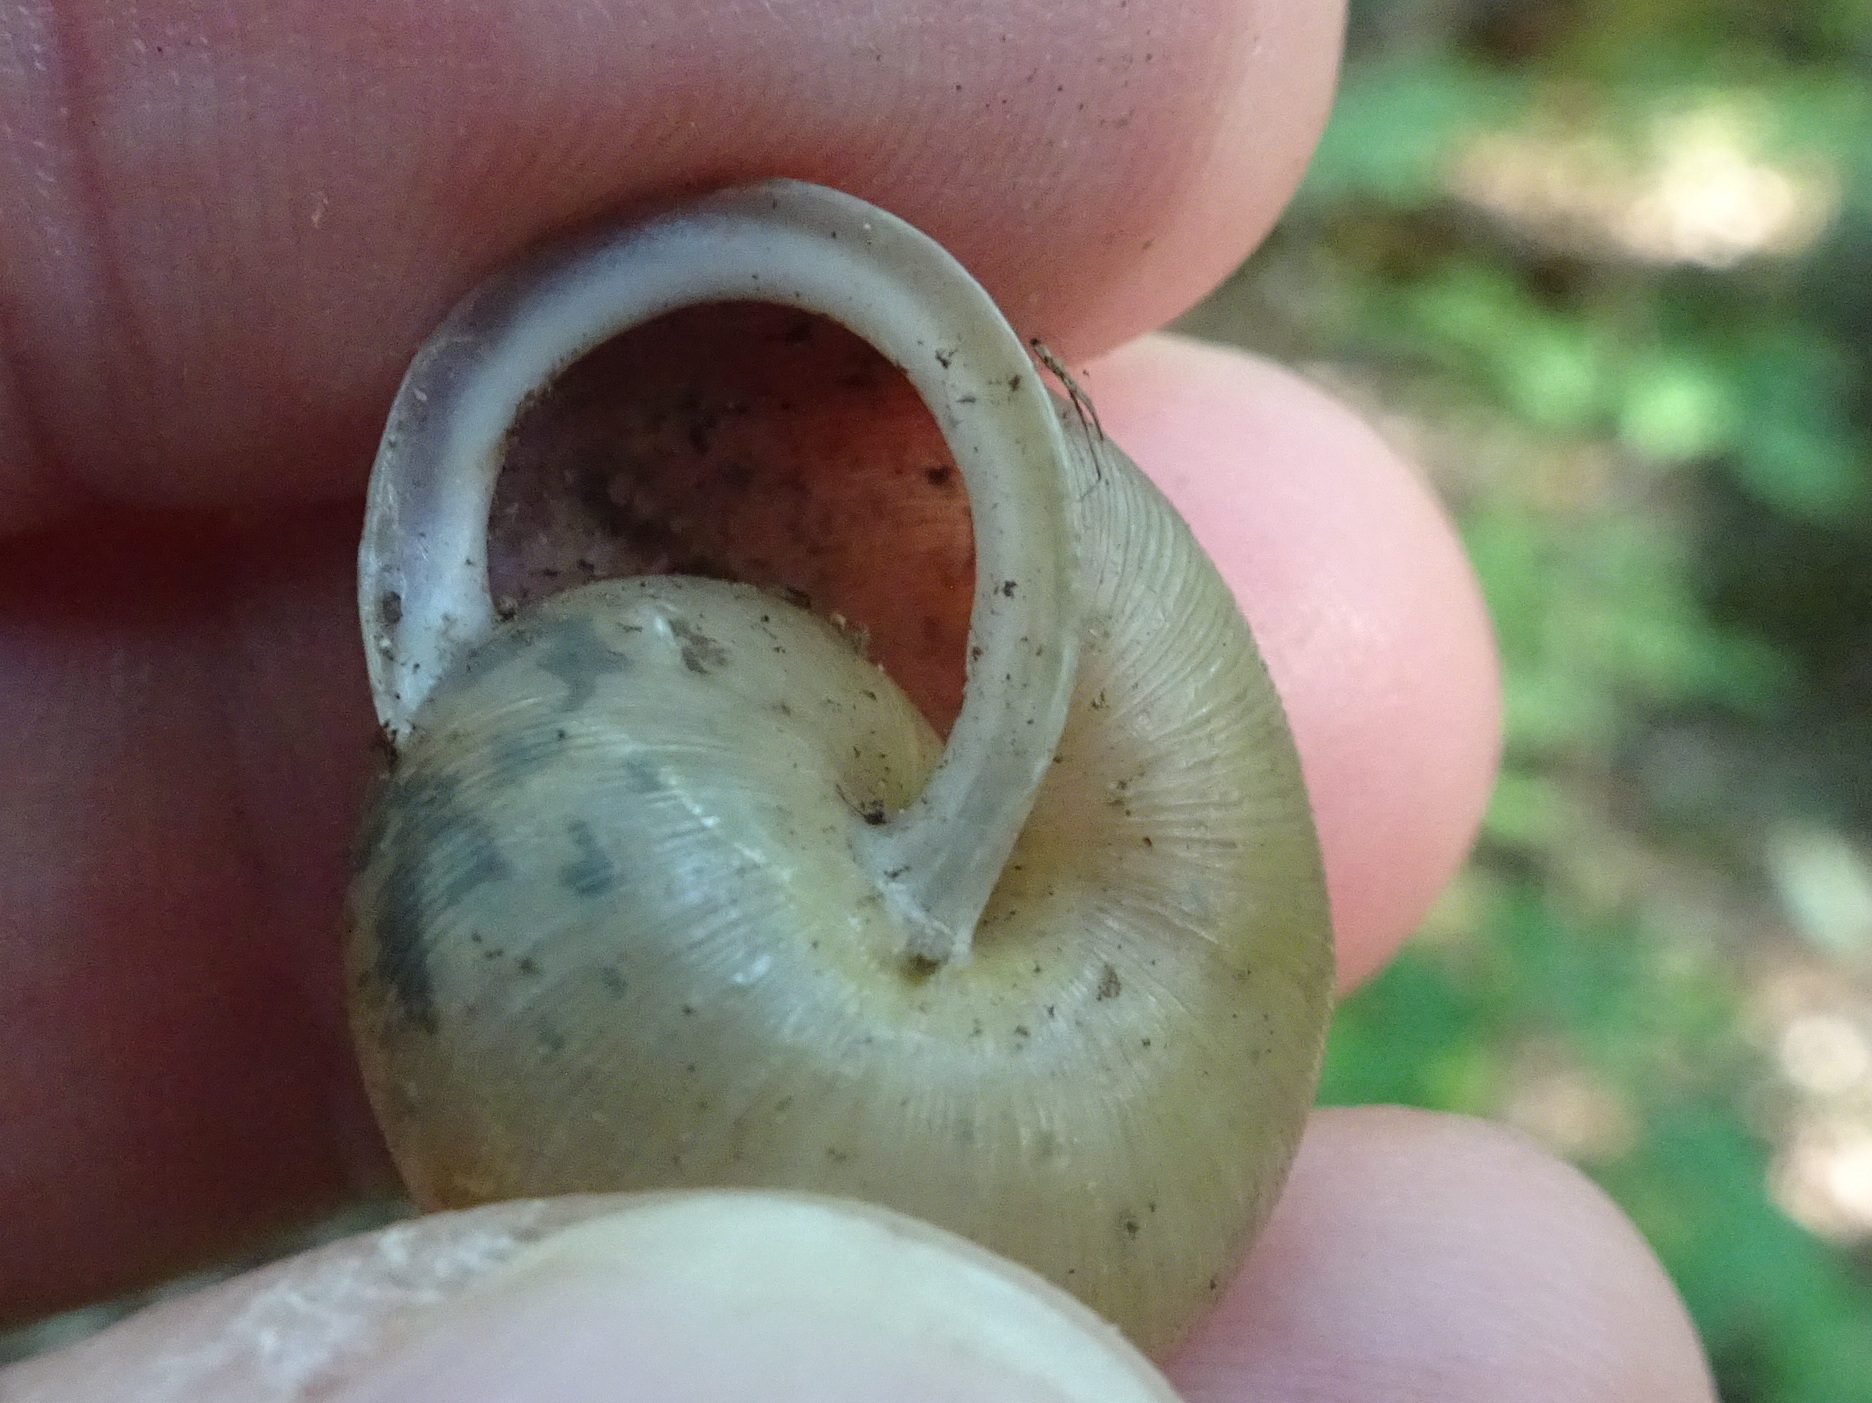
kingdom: Animalia
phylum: Mollusca
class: Gastropoda
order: Stylommatophora
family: Polygyridae
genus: Mesodon
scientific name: Mesodon thyroidus
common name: White-lip globe
